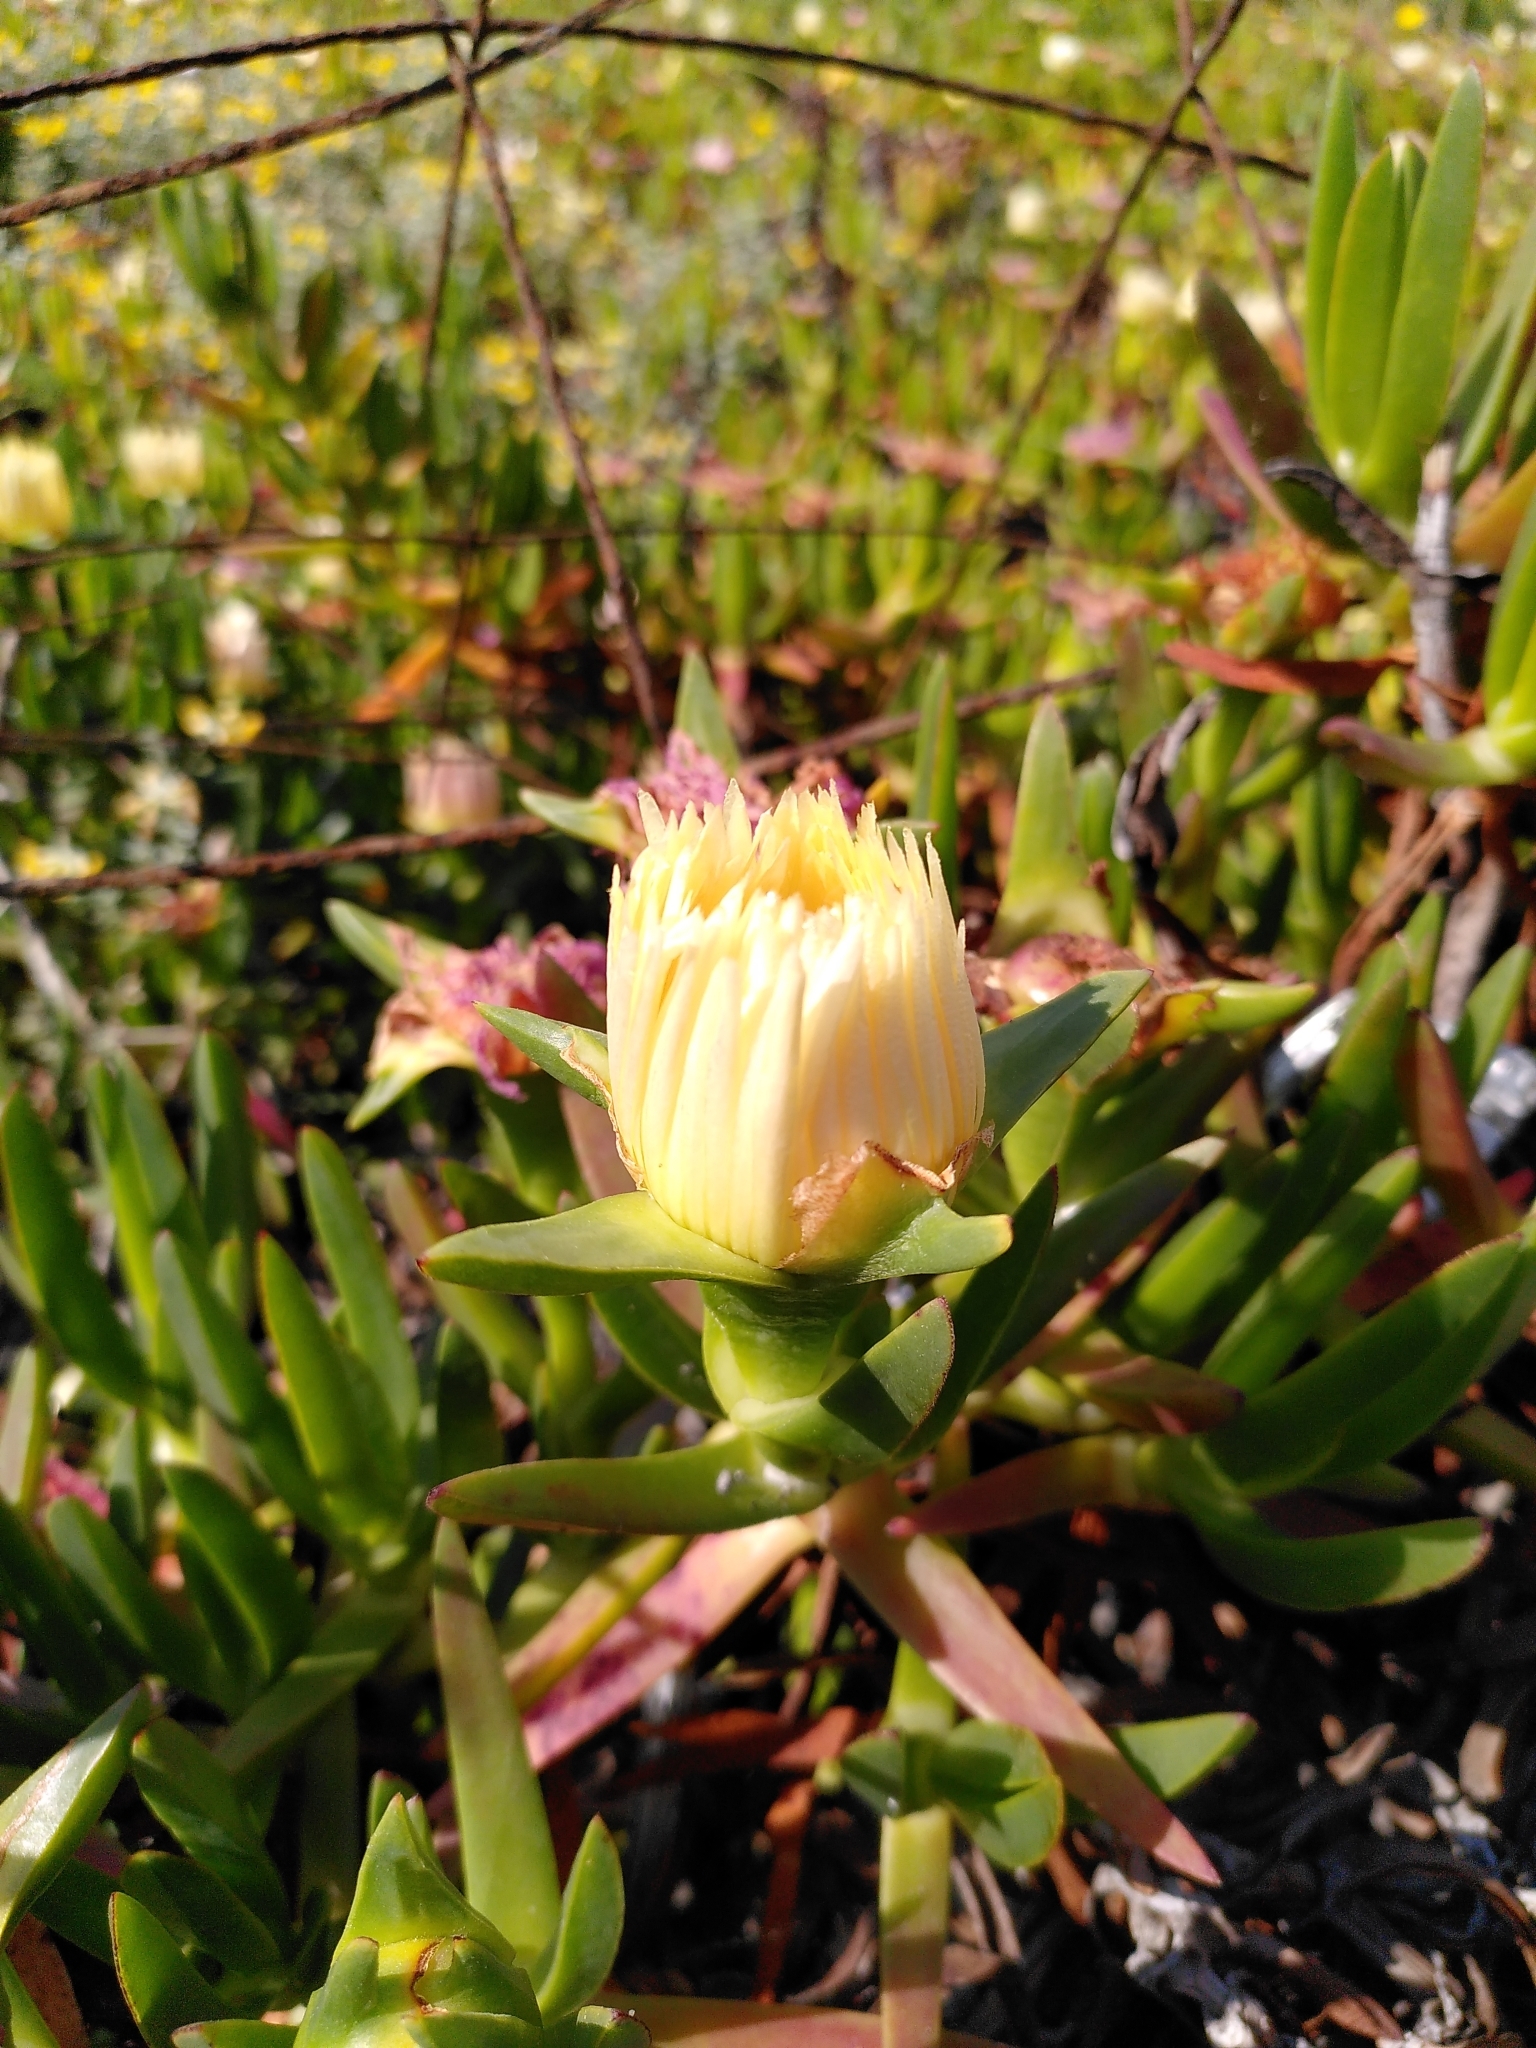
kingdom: Plantae
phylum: Tracheophyta
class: Magnoliopsida
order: Caryophyllales
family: Aizoaceae
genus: Carpobrotus
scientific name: Carpobrotus edulis
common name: Hottentot-fig
